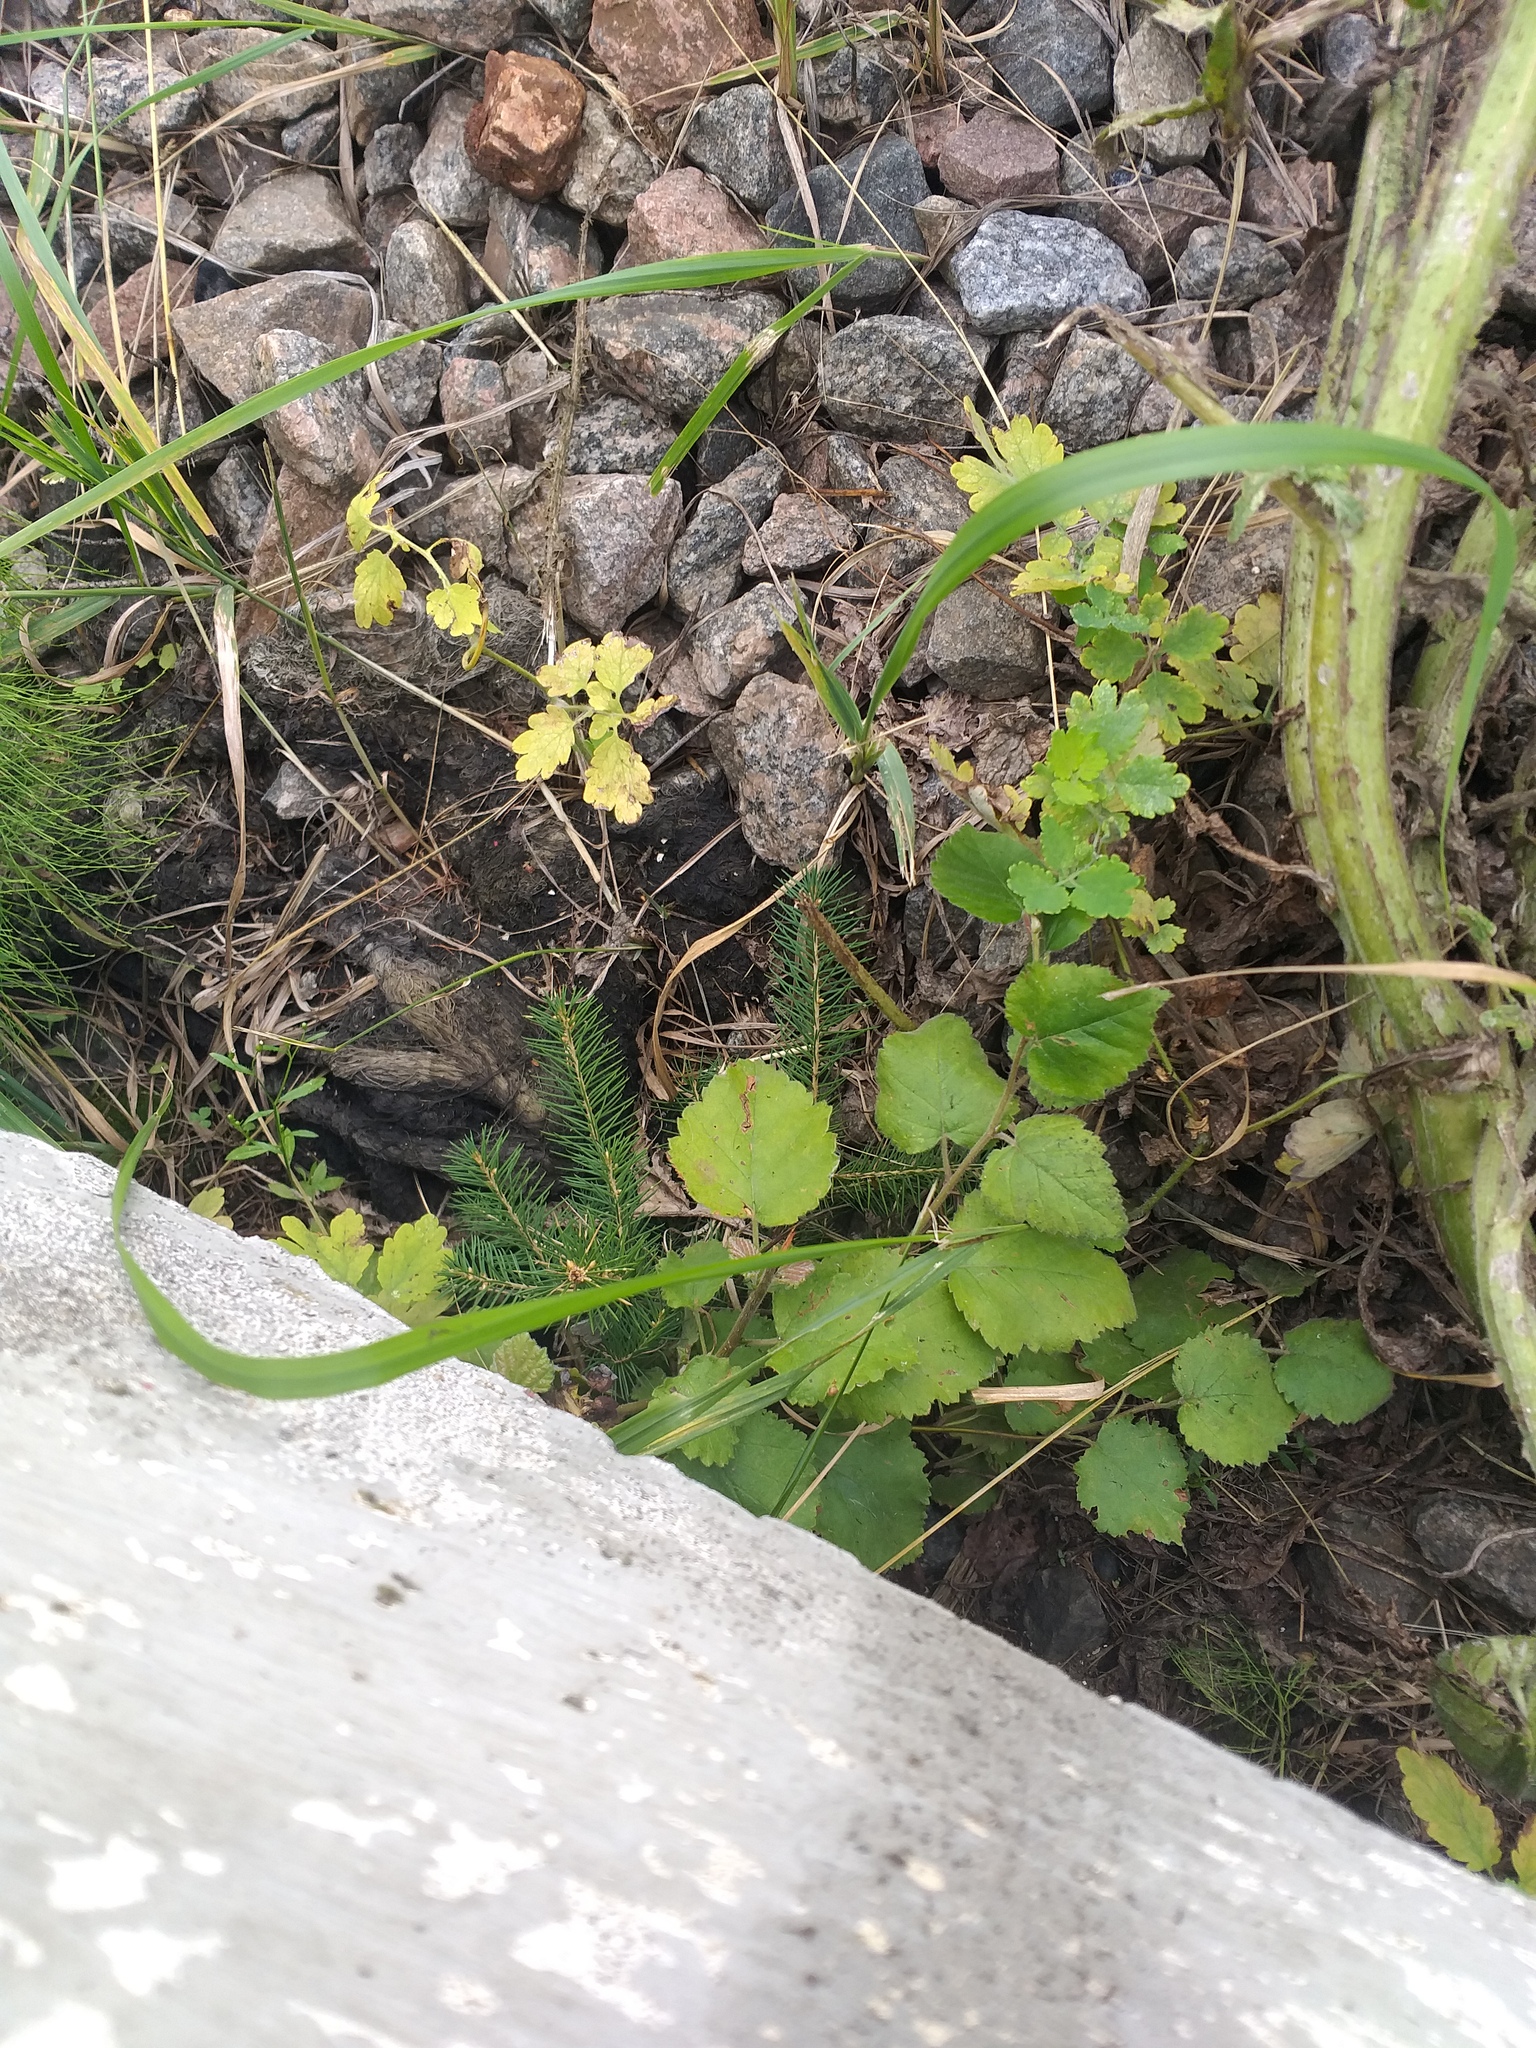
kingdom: Plantae
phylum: Tracheophyta
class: Pinopsida
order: Pinales
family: Pinaceae
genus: Picea
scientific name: Picea abies
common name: Norway spruce
